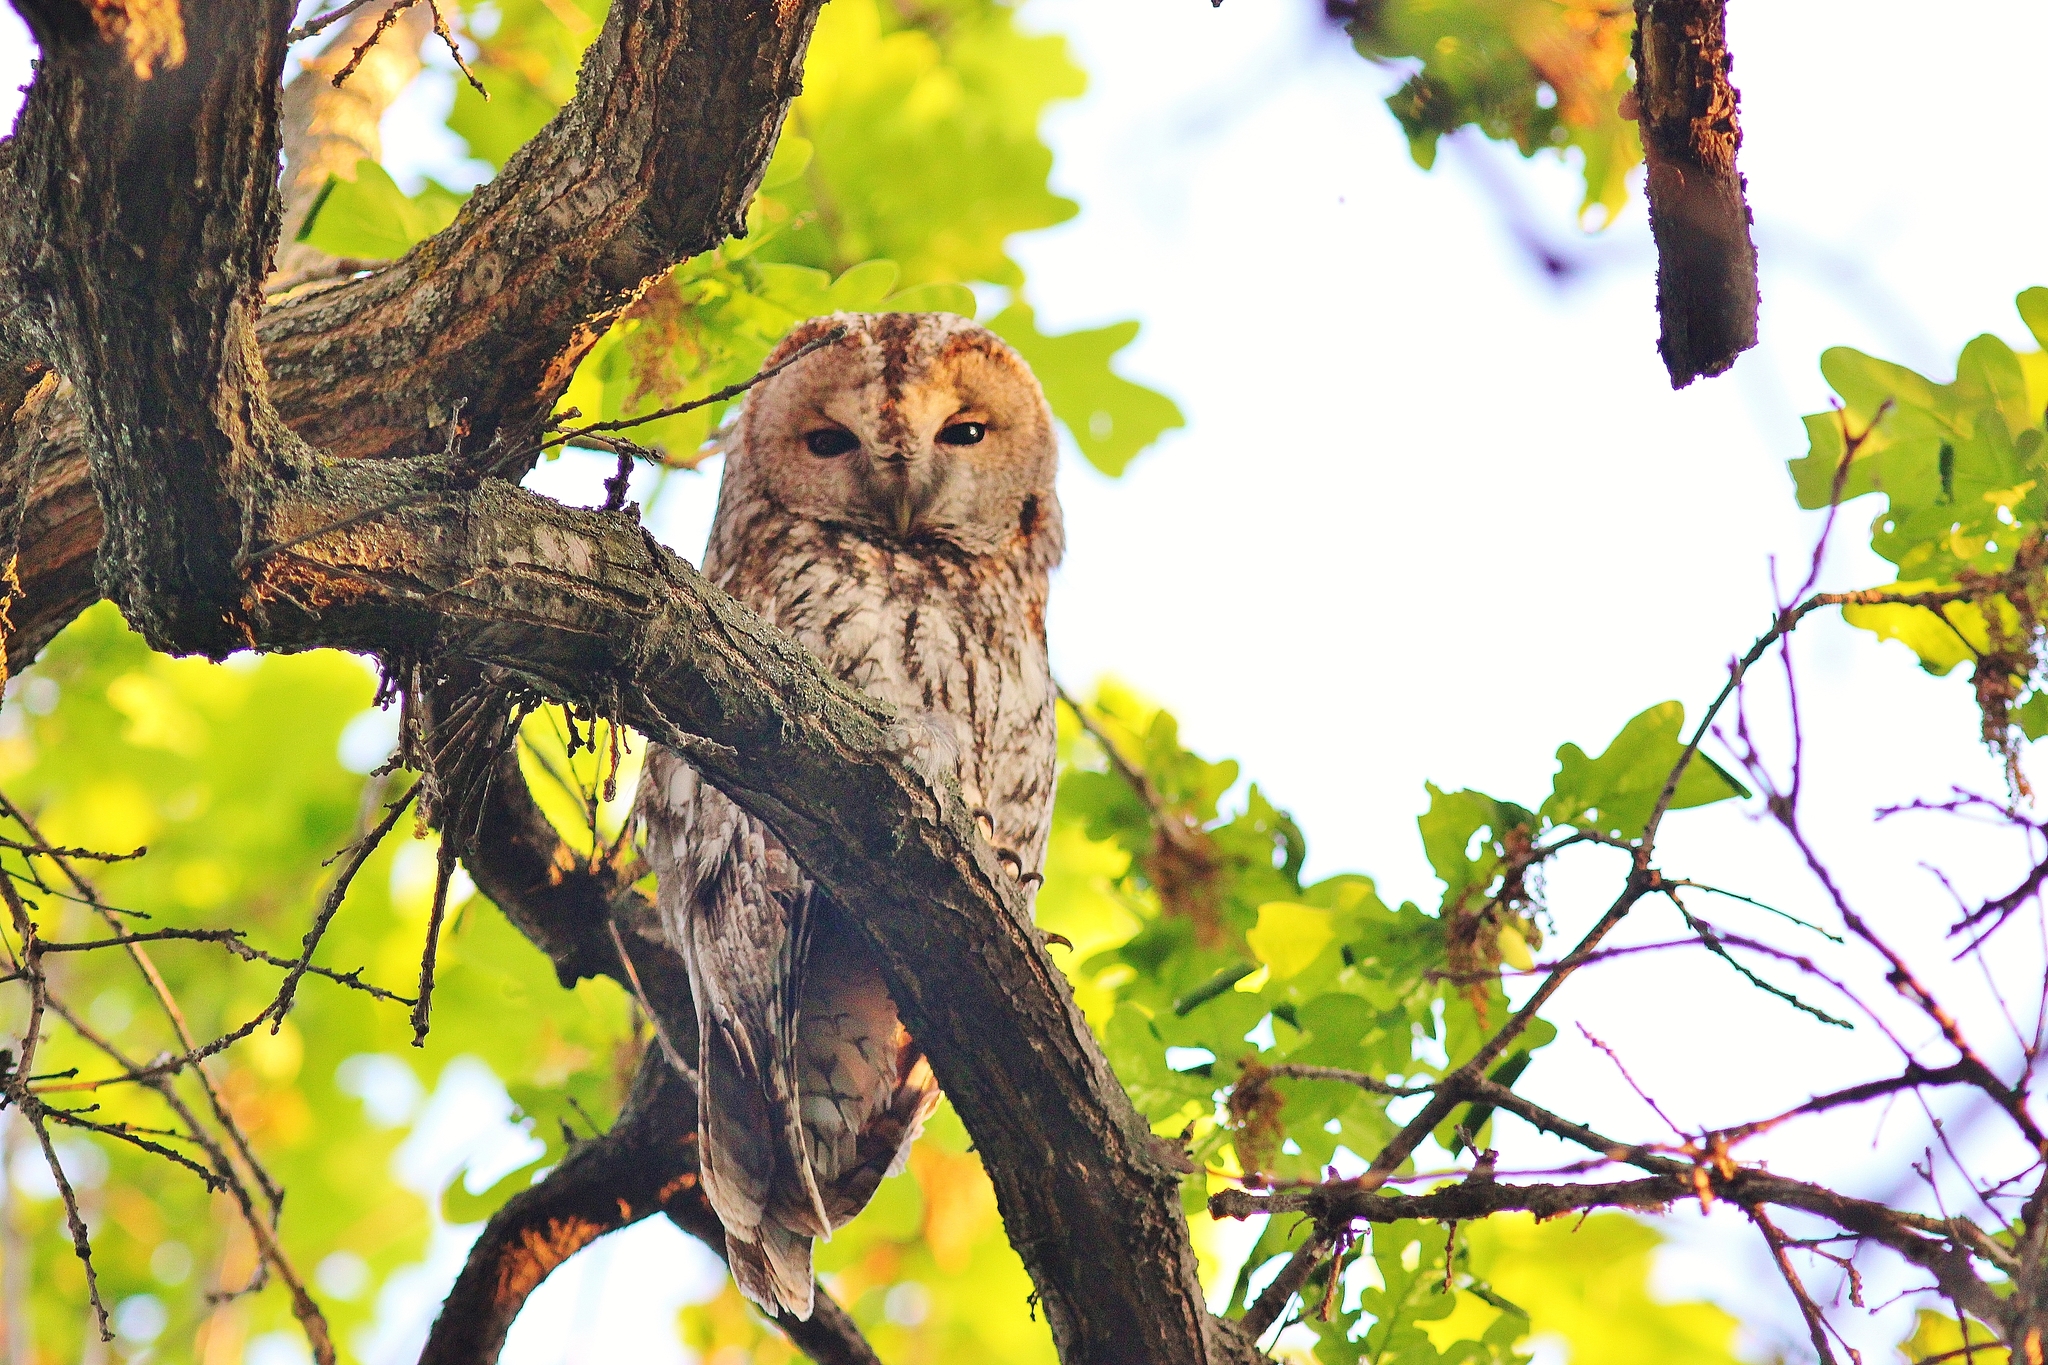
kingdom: Animalia
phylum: Chordata
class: Aves
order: Strigiformes
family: Strigidae
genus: Strix
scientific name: Strix aluco
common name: Tawny owl
